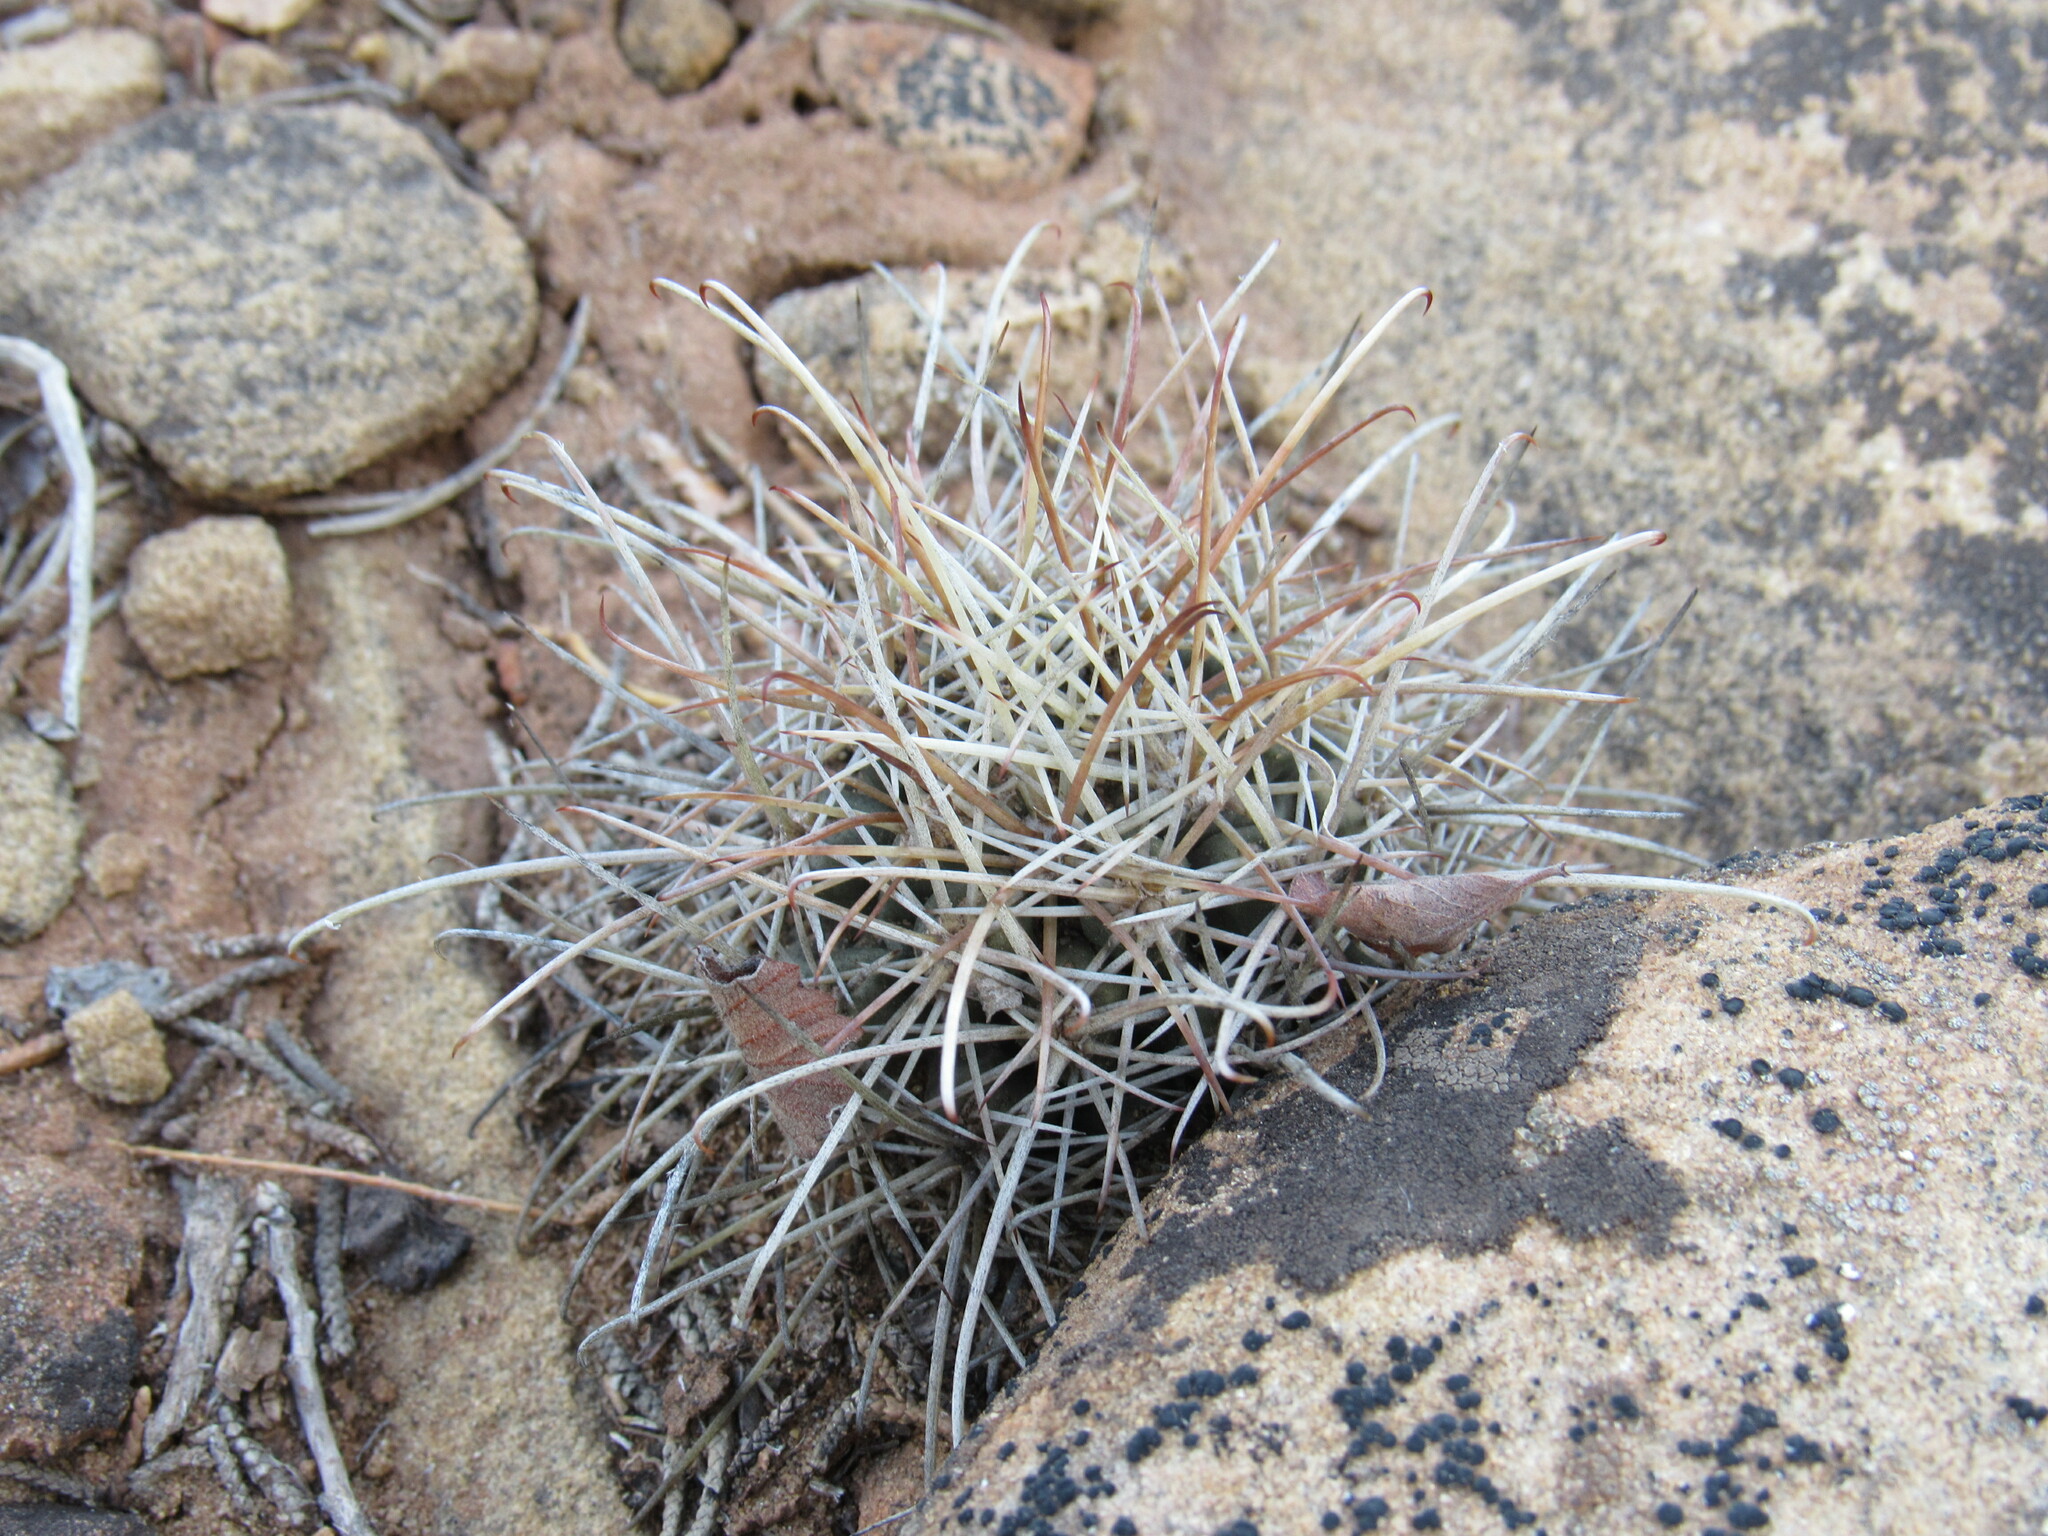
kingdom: Plantae
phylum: Tracheophyta
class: Magnoliopsida
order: Caryophyllales
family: Cactaceae
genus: Sclerocactus
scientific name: Sclerocactus parviflorus
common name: Small-flower fishhook cactus
